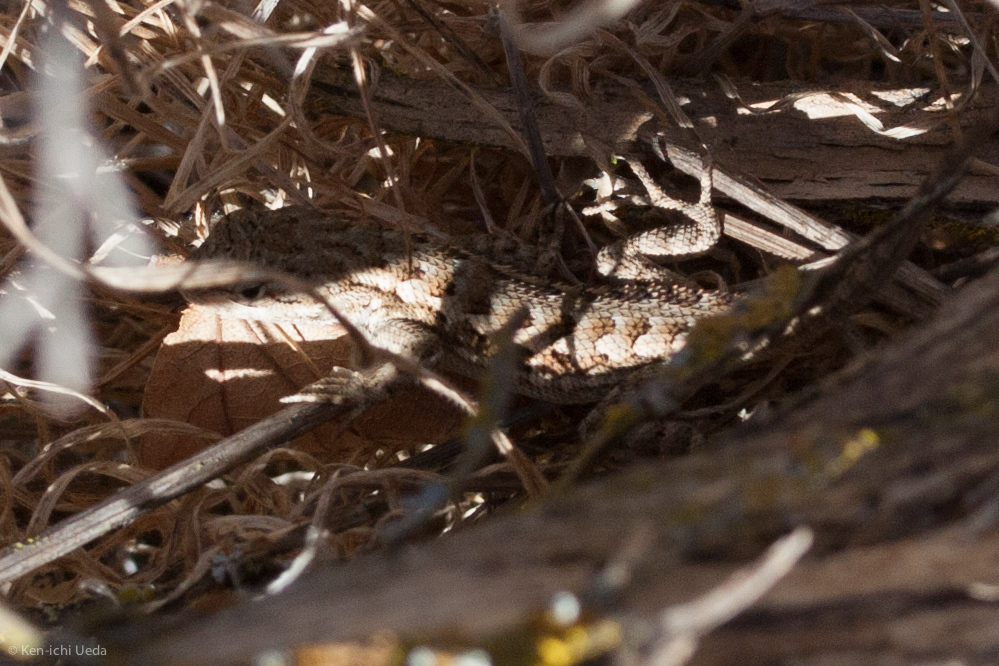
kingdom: Animalia
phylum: Chordata
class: Squamata
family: Phrynosomatidae
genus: Sceloporus
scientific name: Sceloporus occidentalis
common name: Western fence lizard
